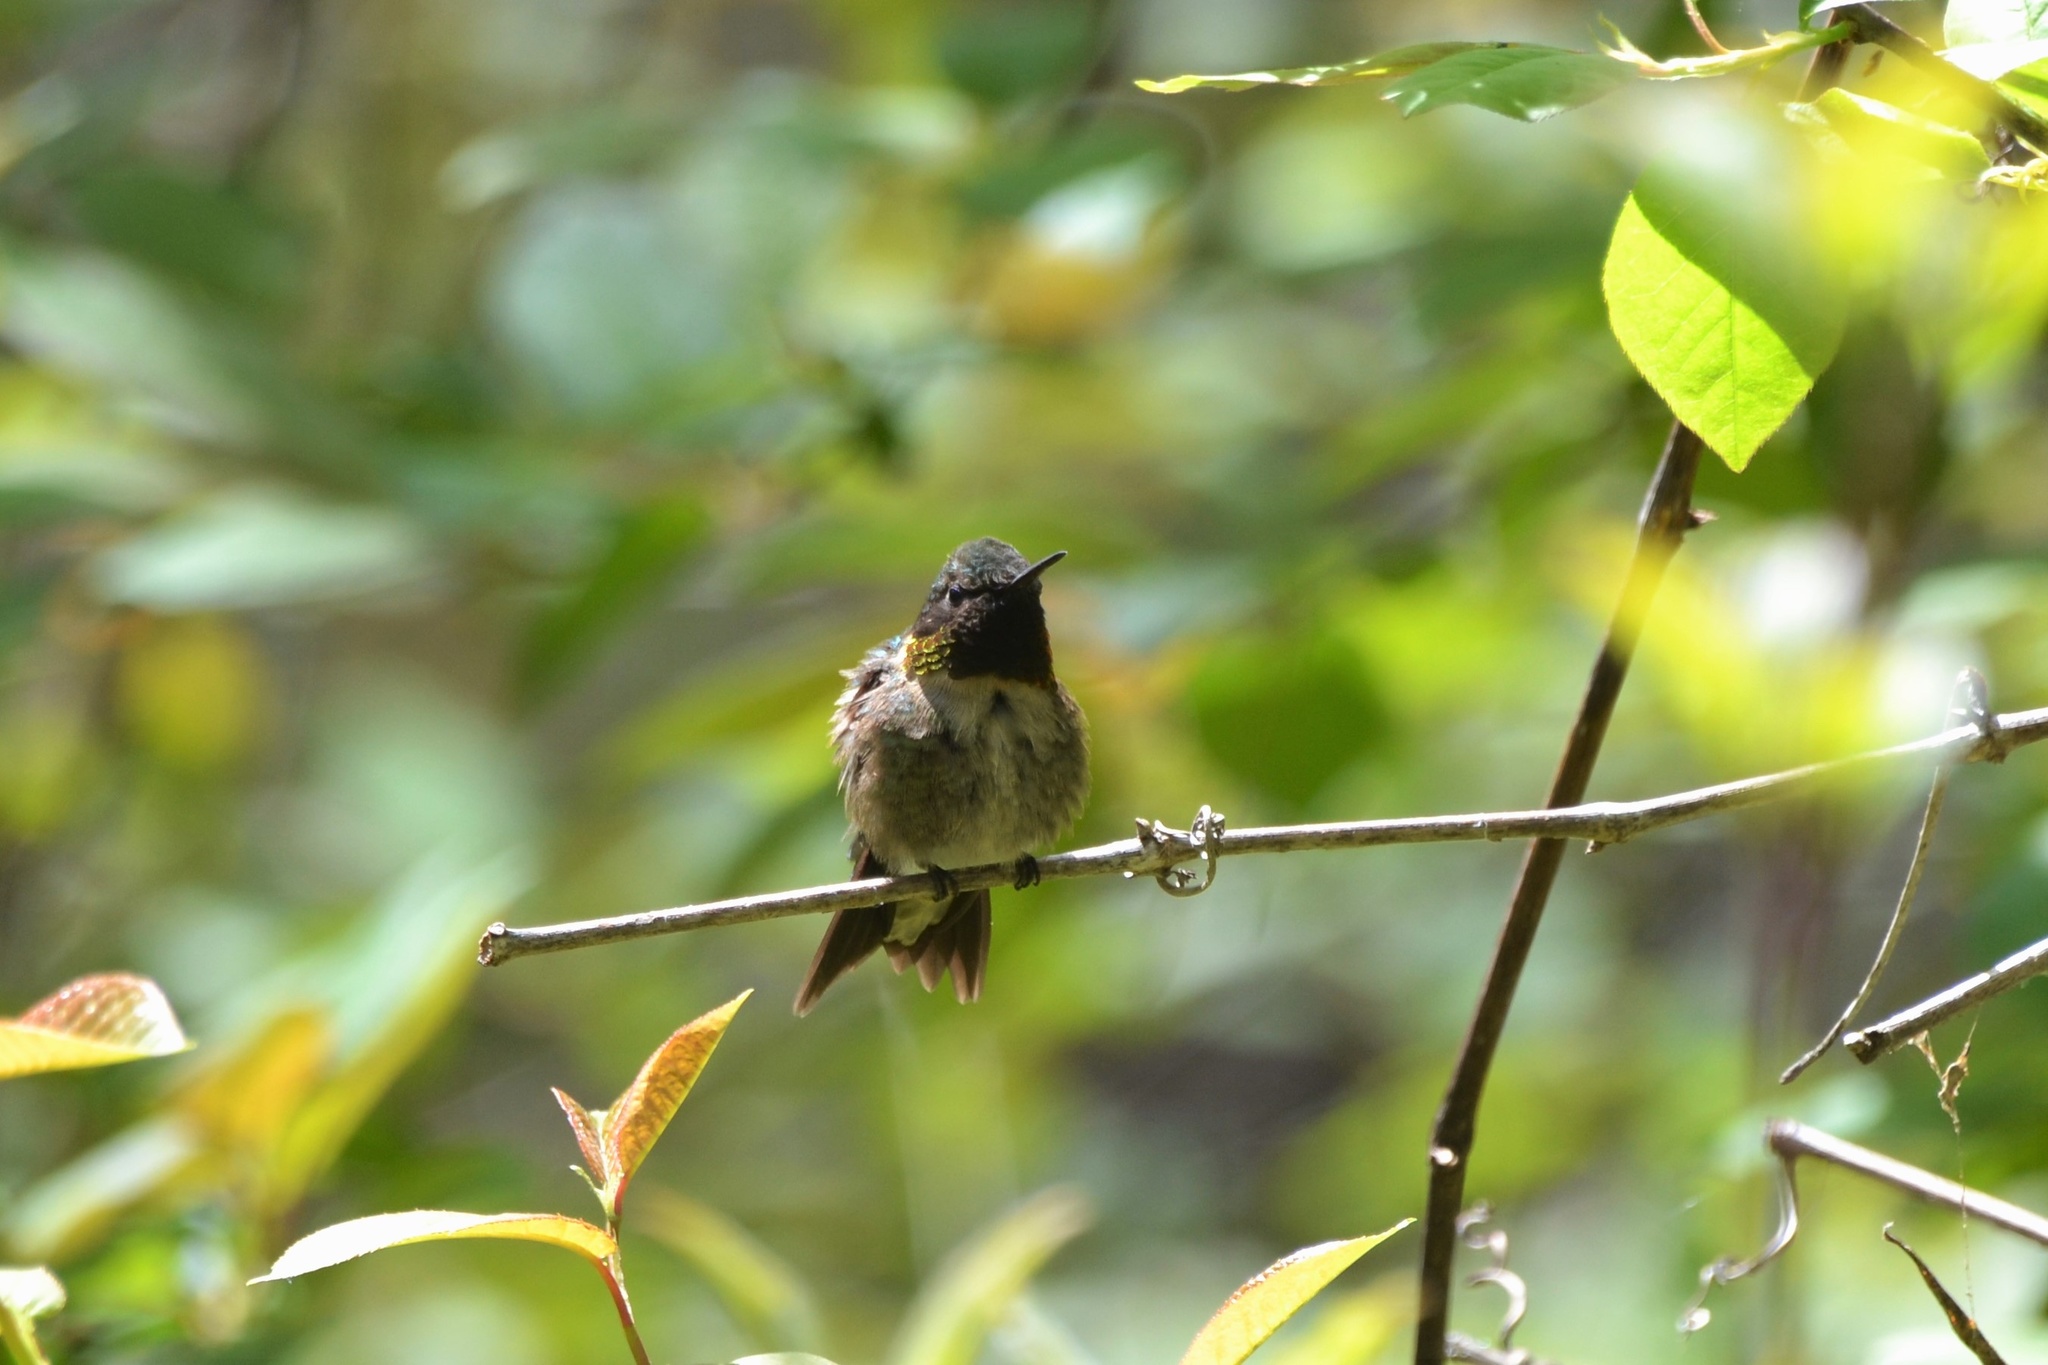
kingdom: Animalia
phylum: Chordata
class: Aves
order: Apodiformes
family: Trochilidae
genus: Archilochus
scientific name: Archilochus colubris
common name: Ruby-throated hummingbird
